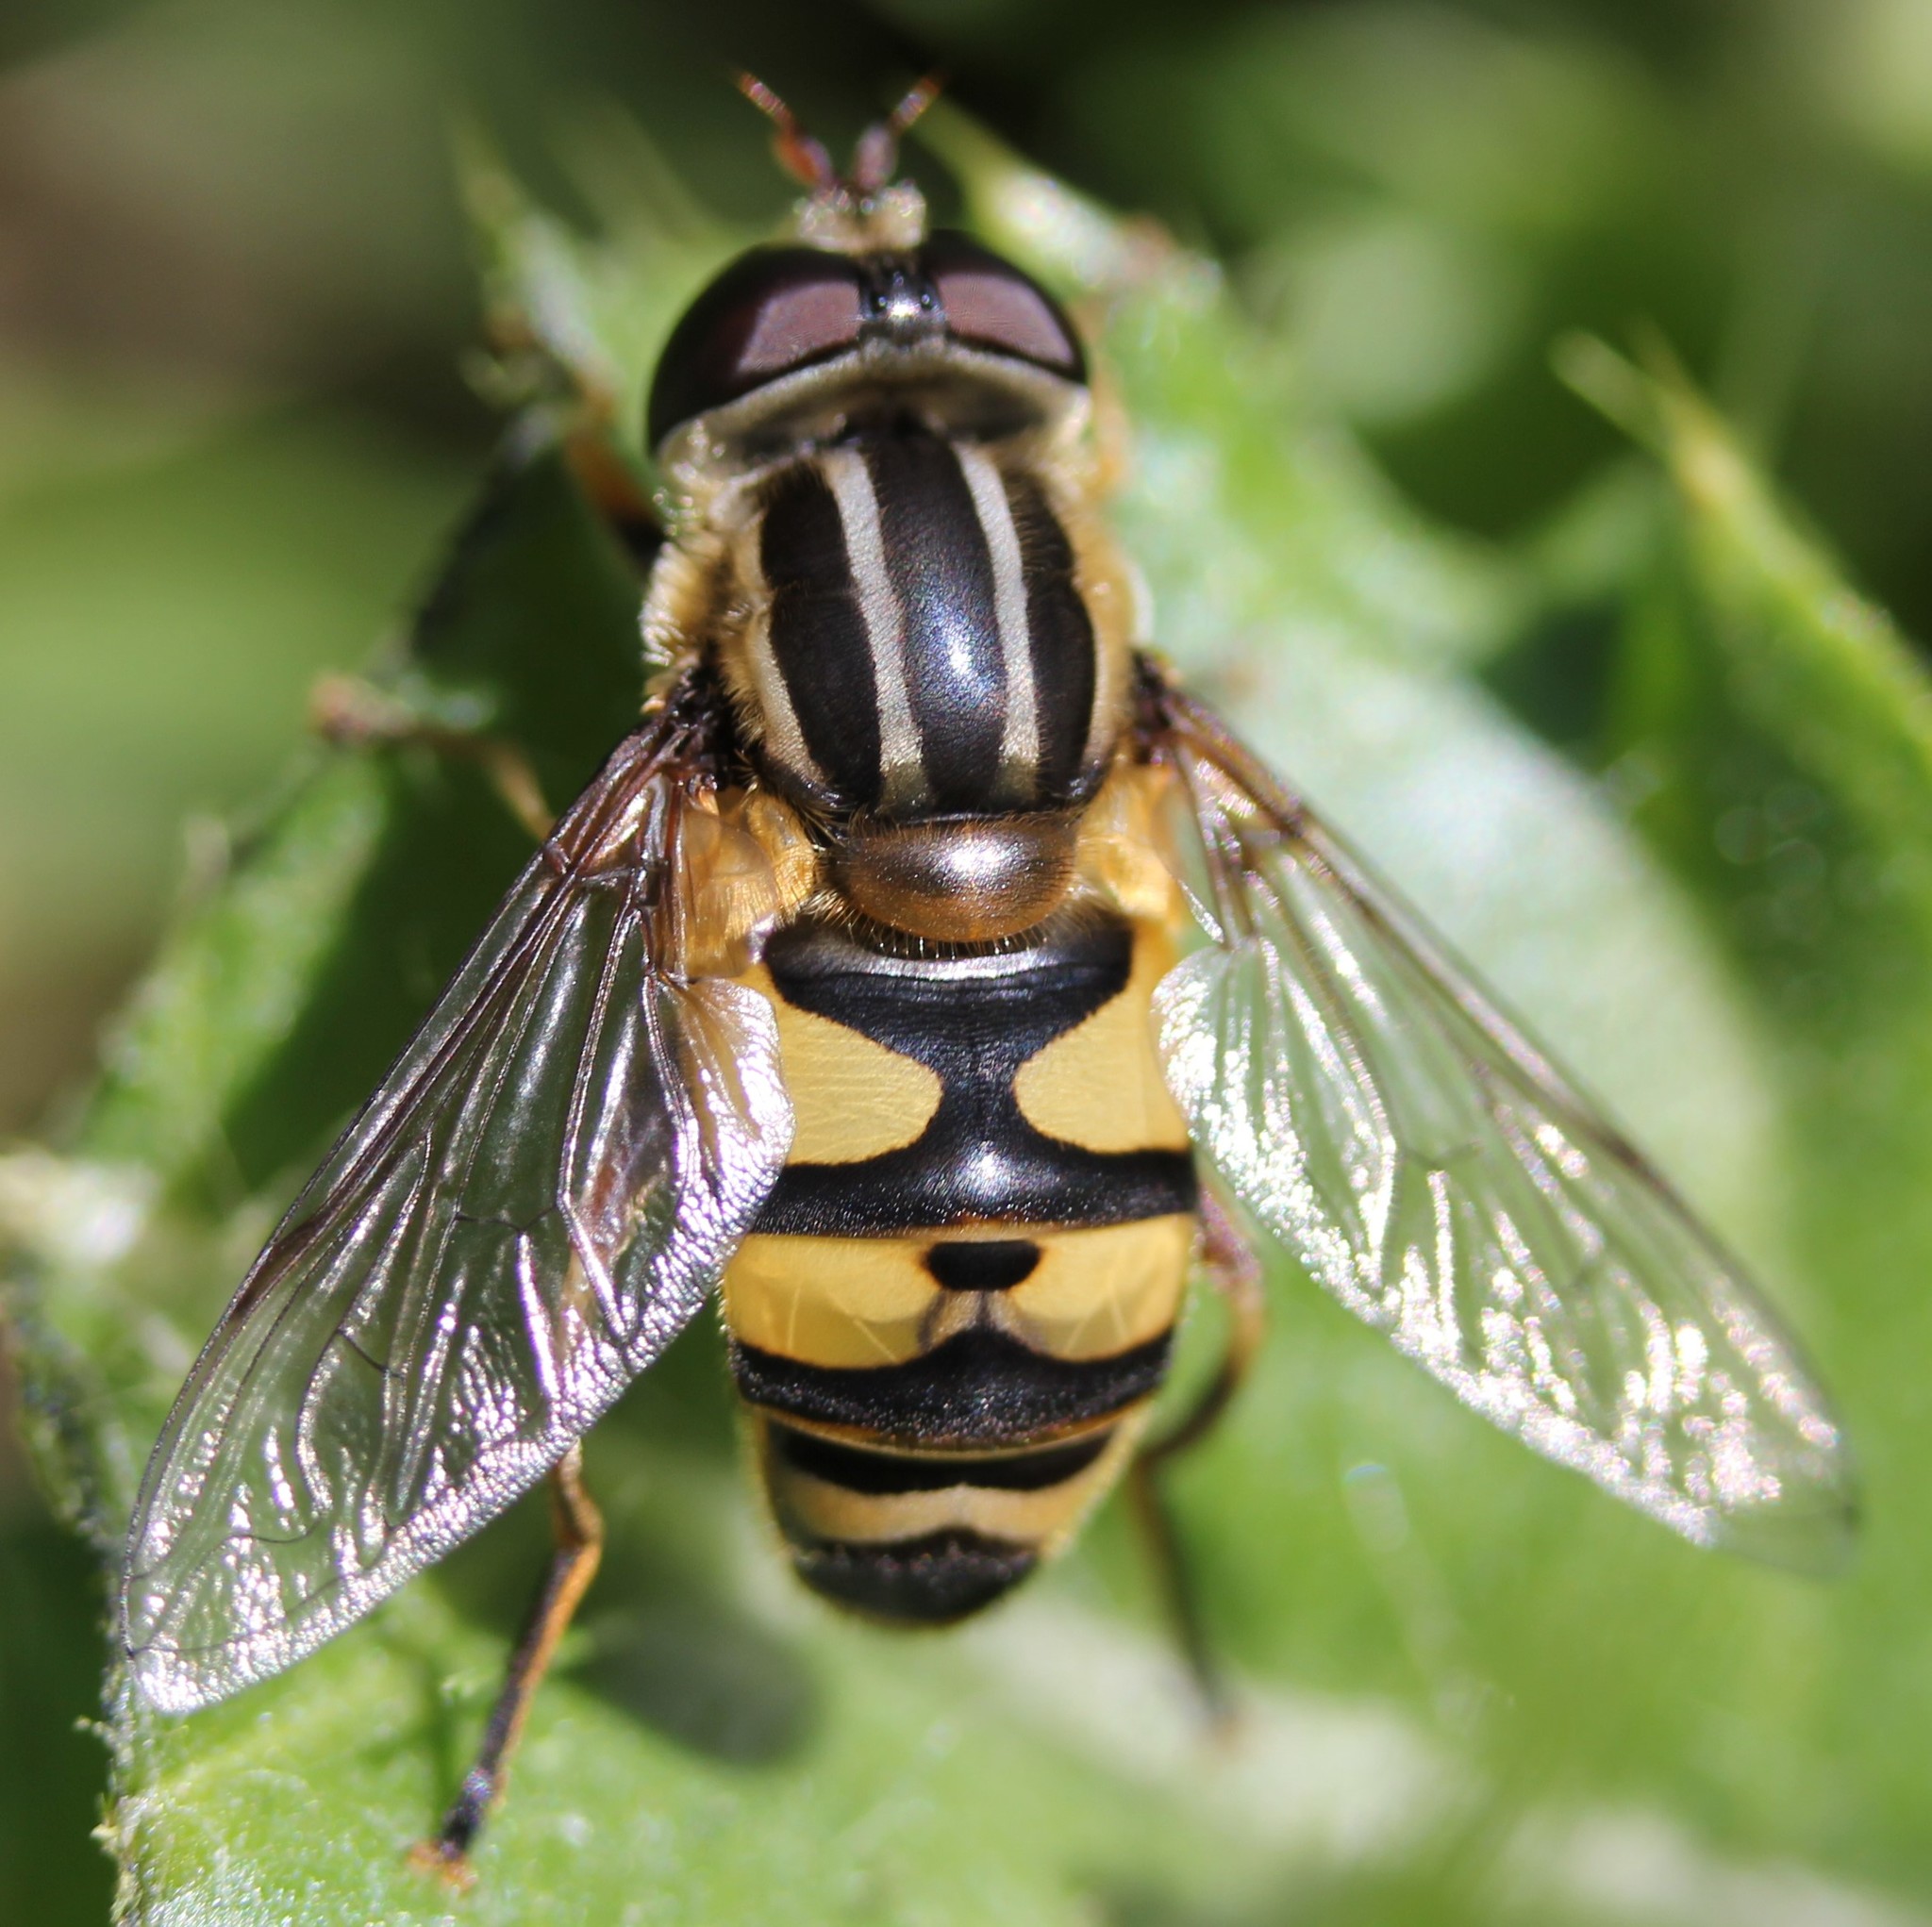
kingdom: Animalia
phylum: Arthropoda
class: Insecta
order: Diptera
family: Syrphidae
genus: Helophilus
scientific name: Helophilus fasciatus
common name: Narrow-headed marsh fly
